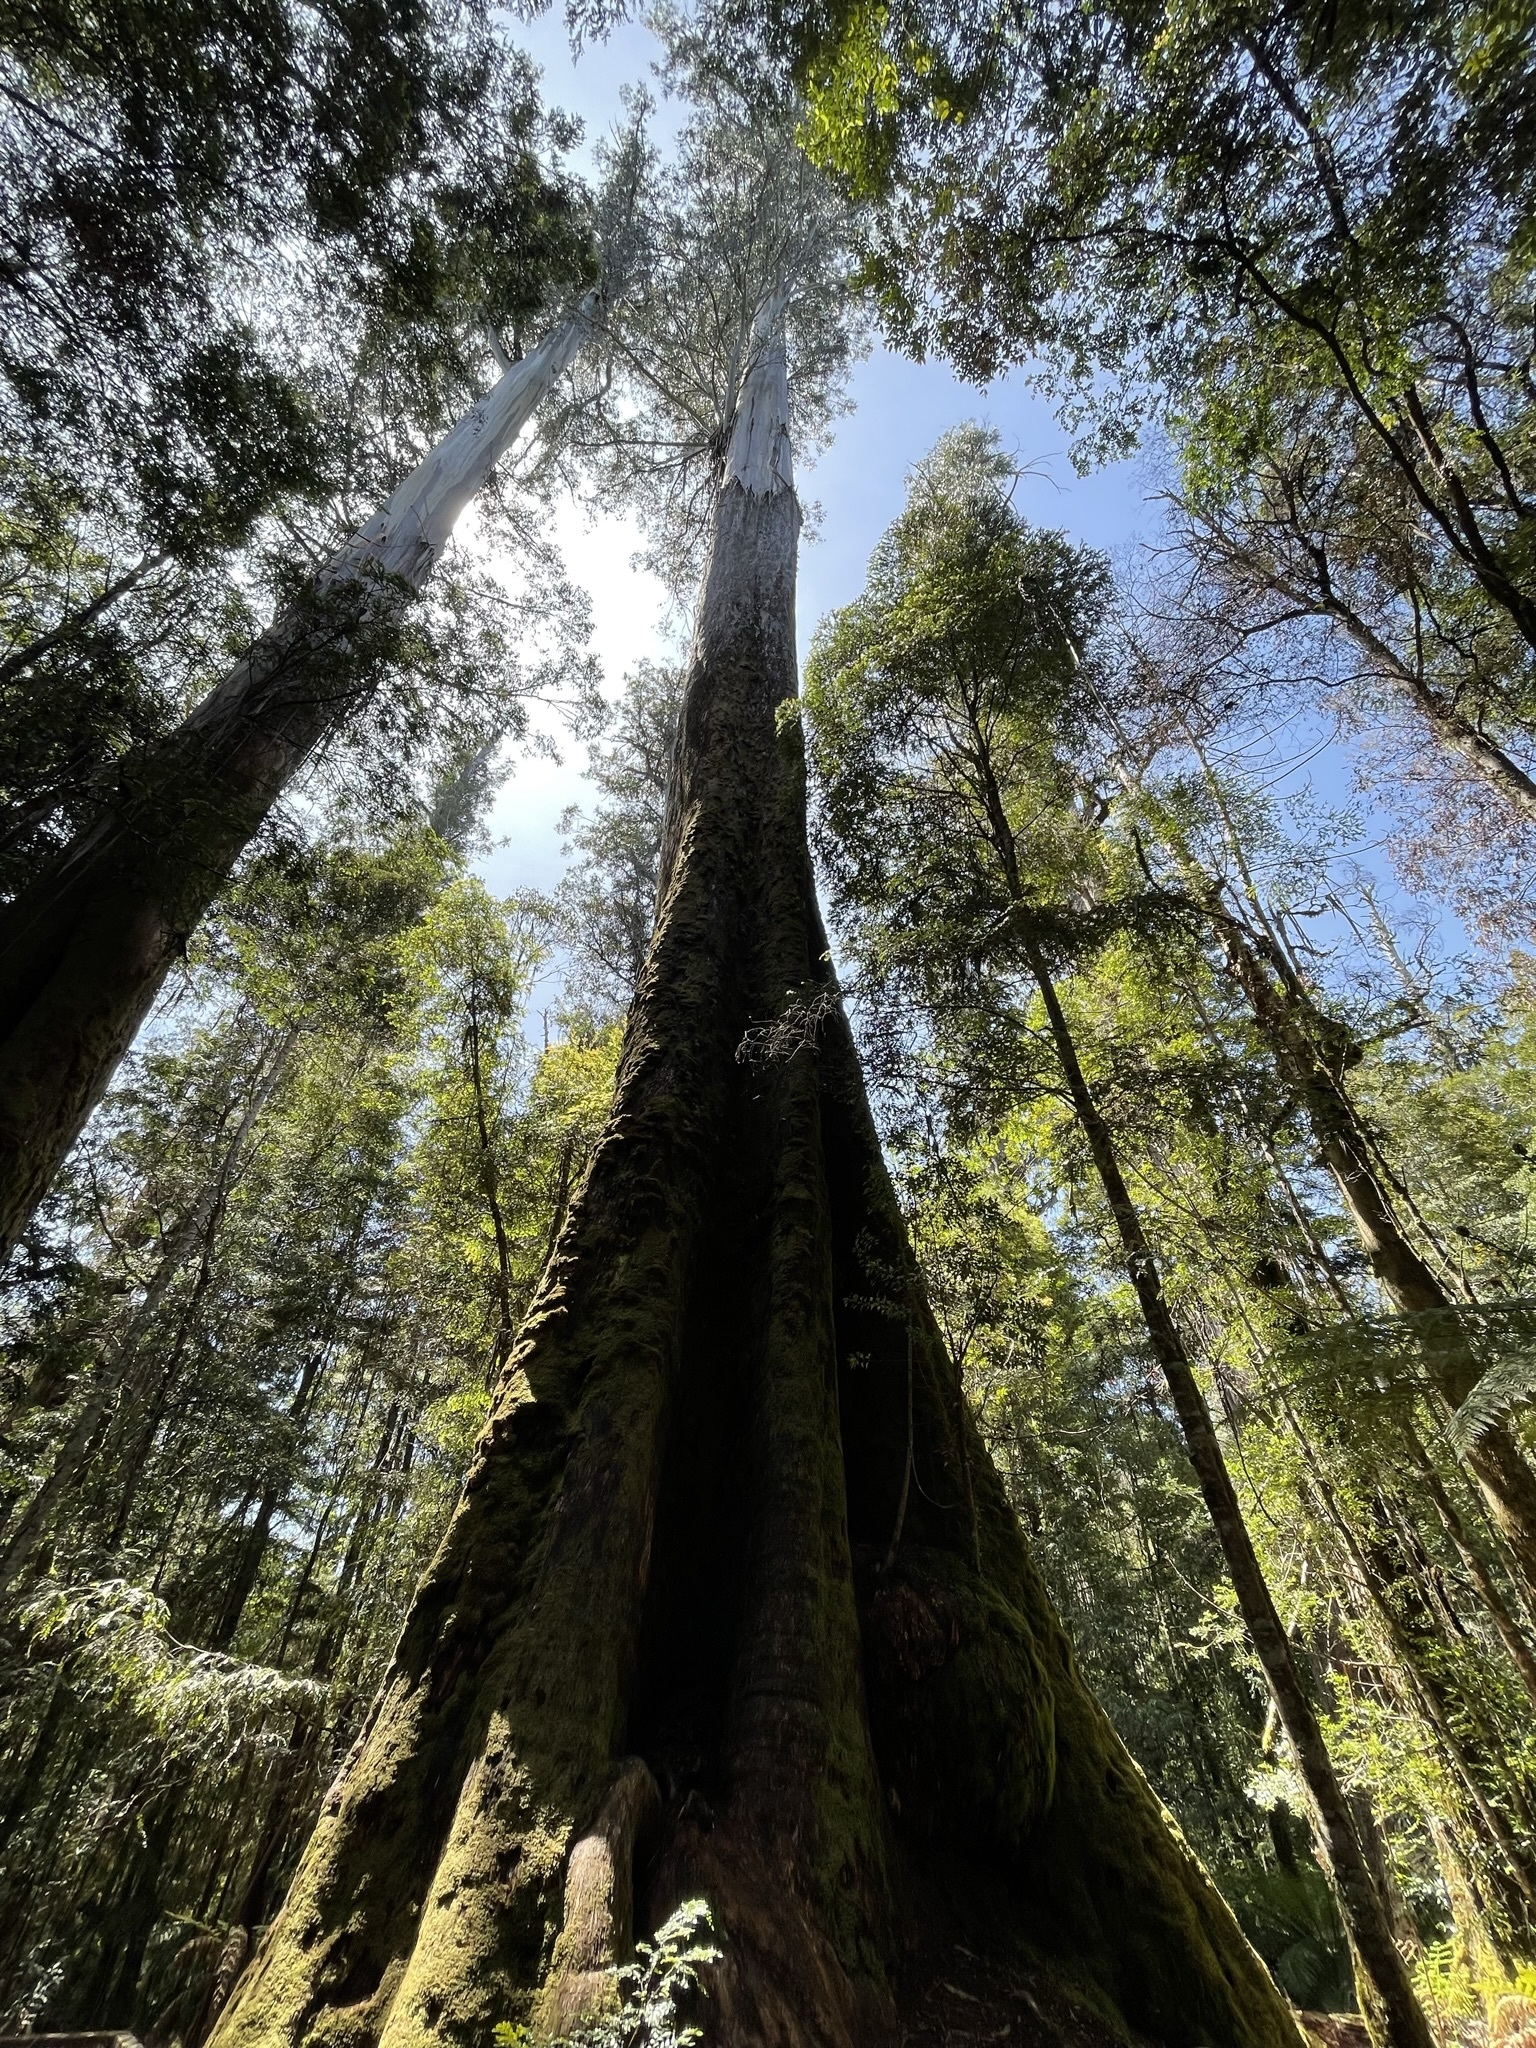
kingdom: Plantae
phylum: Tracheophyta
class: Magnoliopsida
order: Myrtales
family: Myrtaceae
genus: Eucalyptus
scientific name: Eucalyptus regnans
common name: Stringy gum
